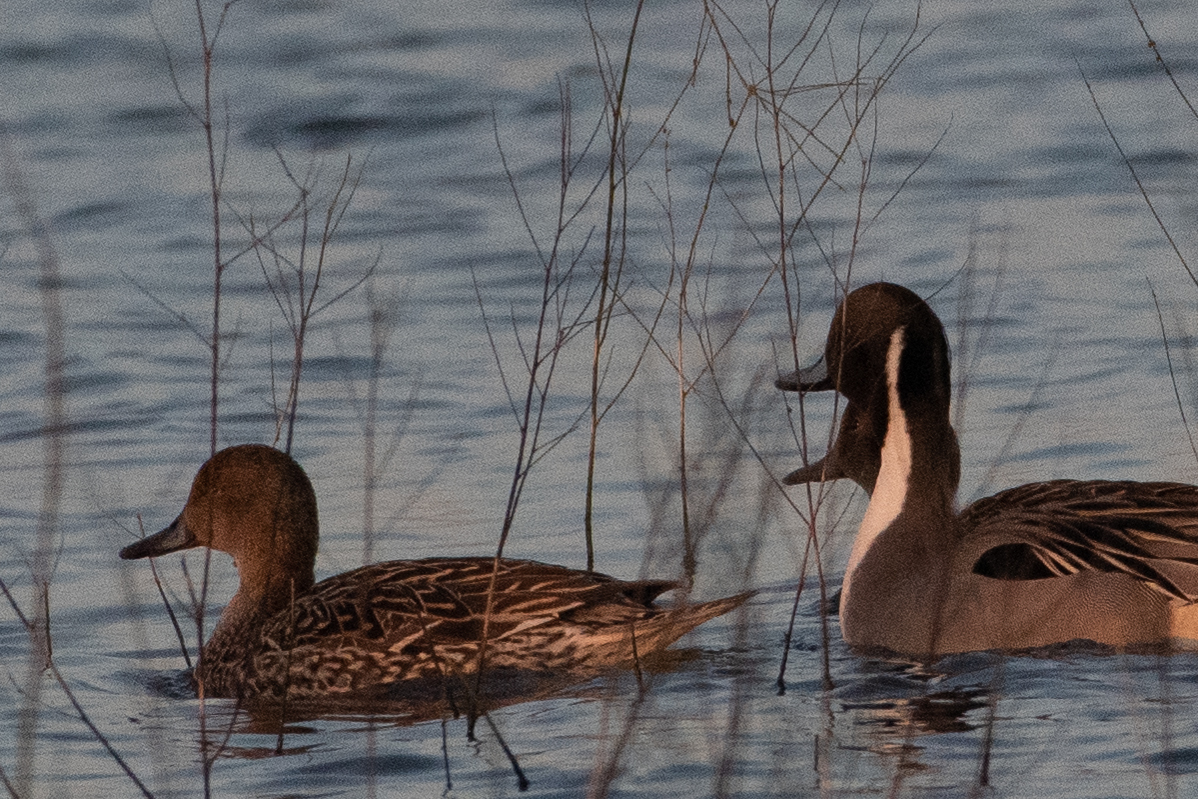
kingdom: Animalia
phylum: Chordata
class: Aves
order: Anseriformes
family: Anatidae
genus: Anas
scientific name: Anas acuta
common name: Northern pintail
